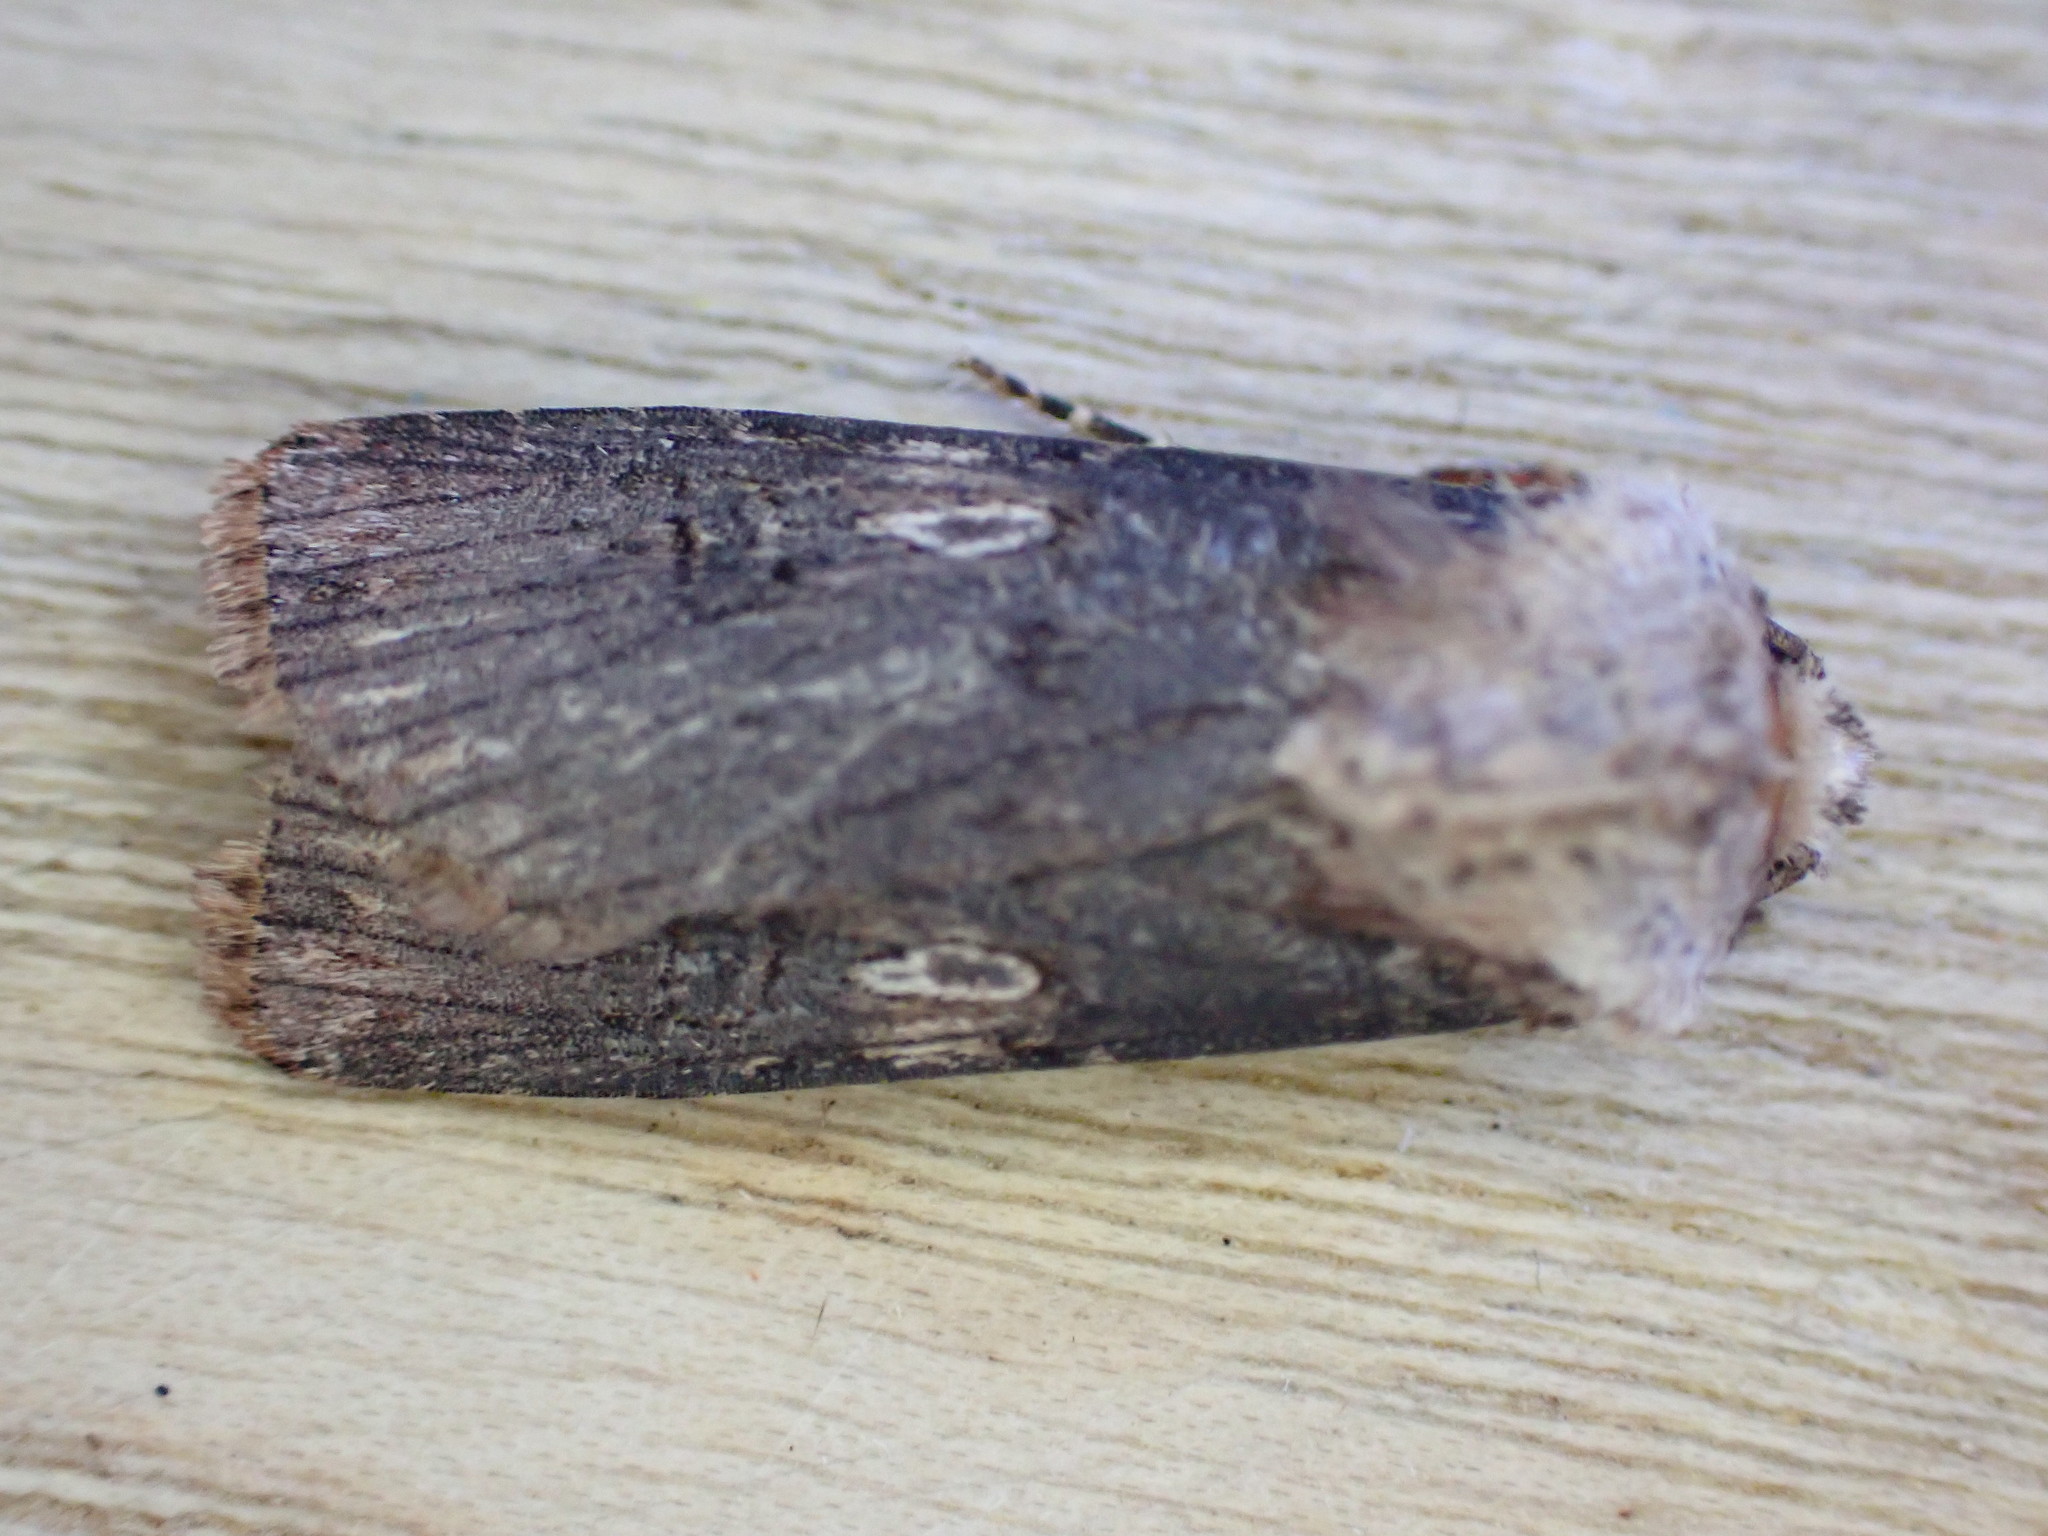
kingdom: Animalia
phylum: Arthropoda
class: Insecta
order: Lepidoptera
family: Noctuidae
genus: Agrotis
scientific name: Agrotis puta
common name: Shuttle-shaped dart
